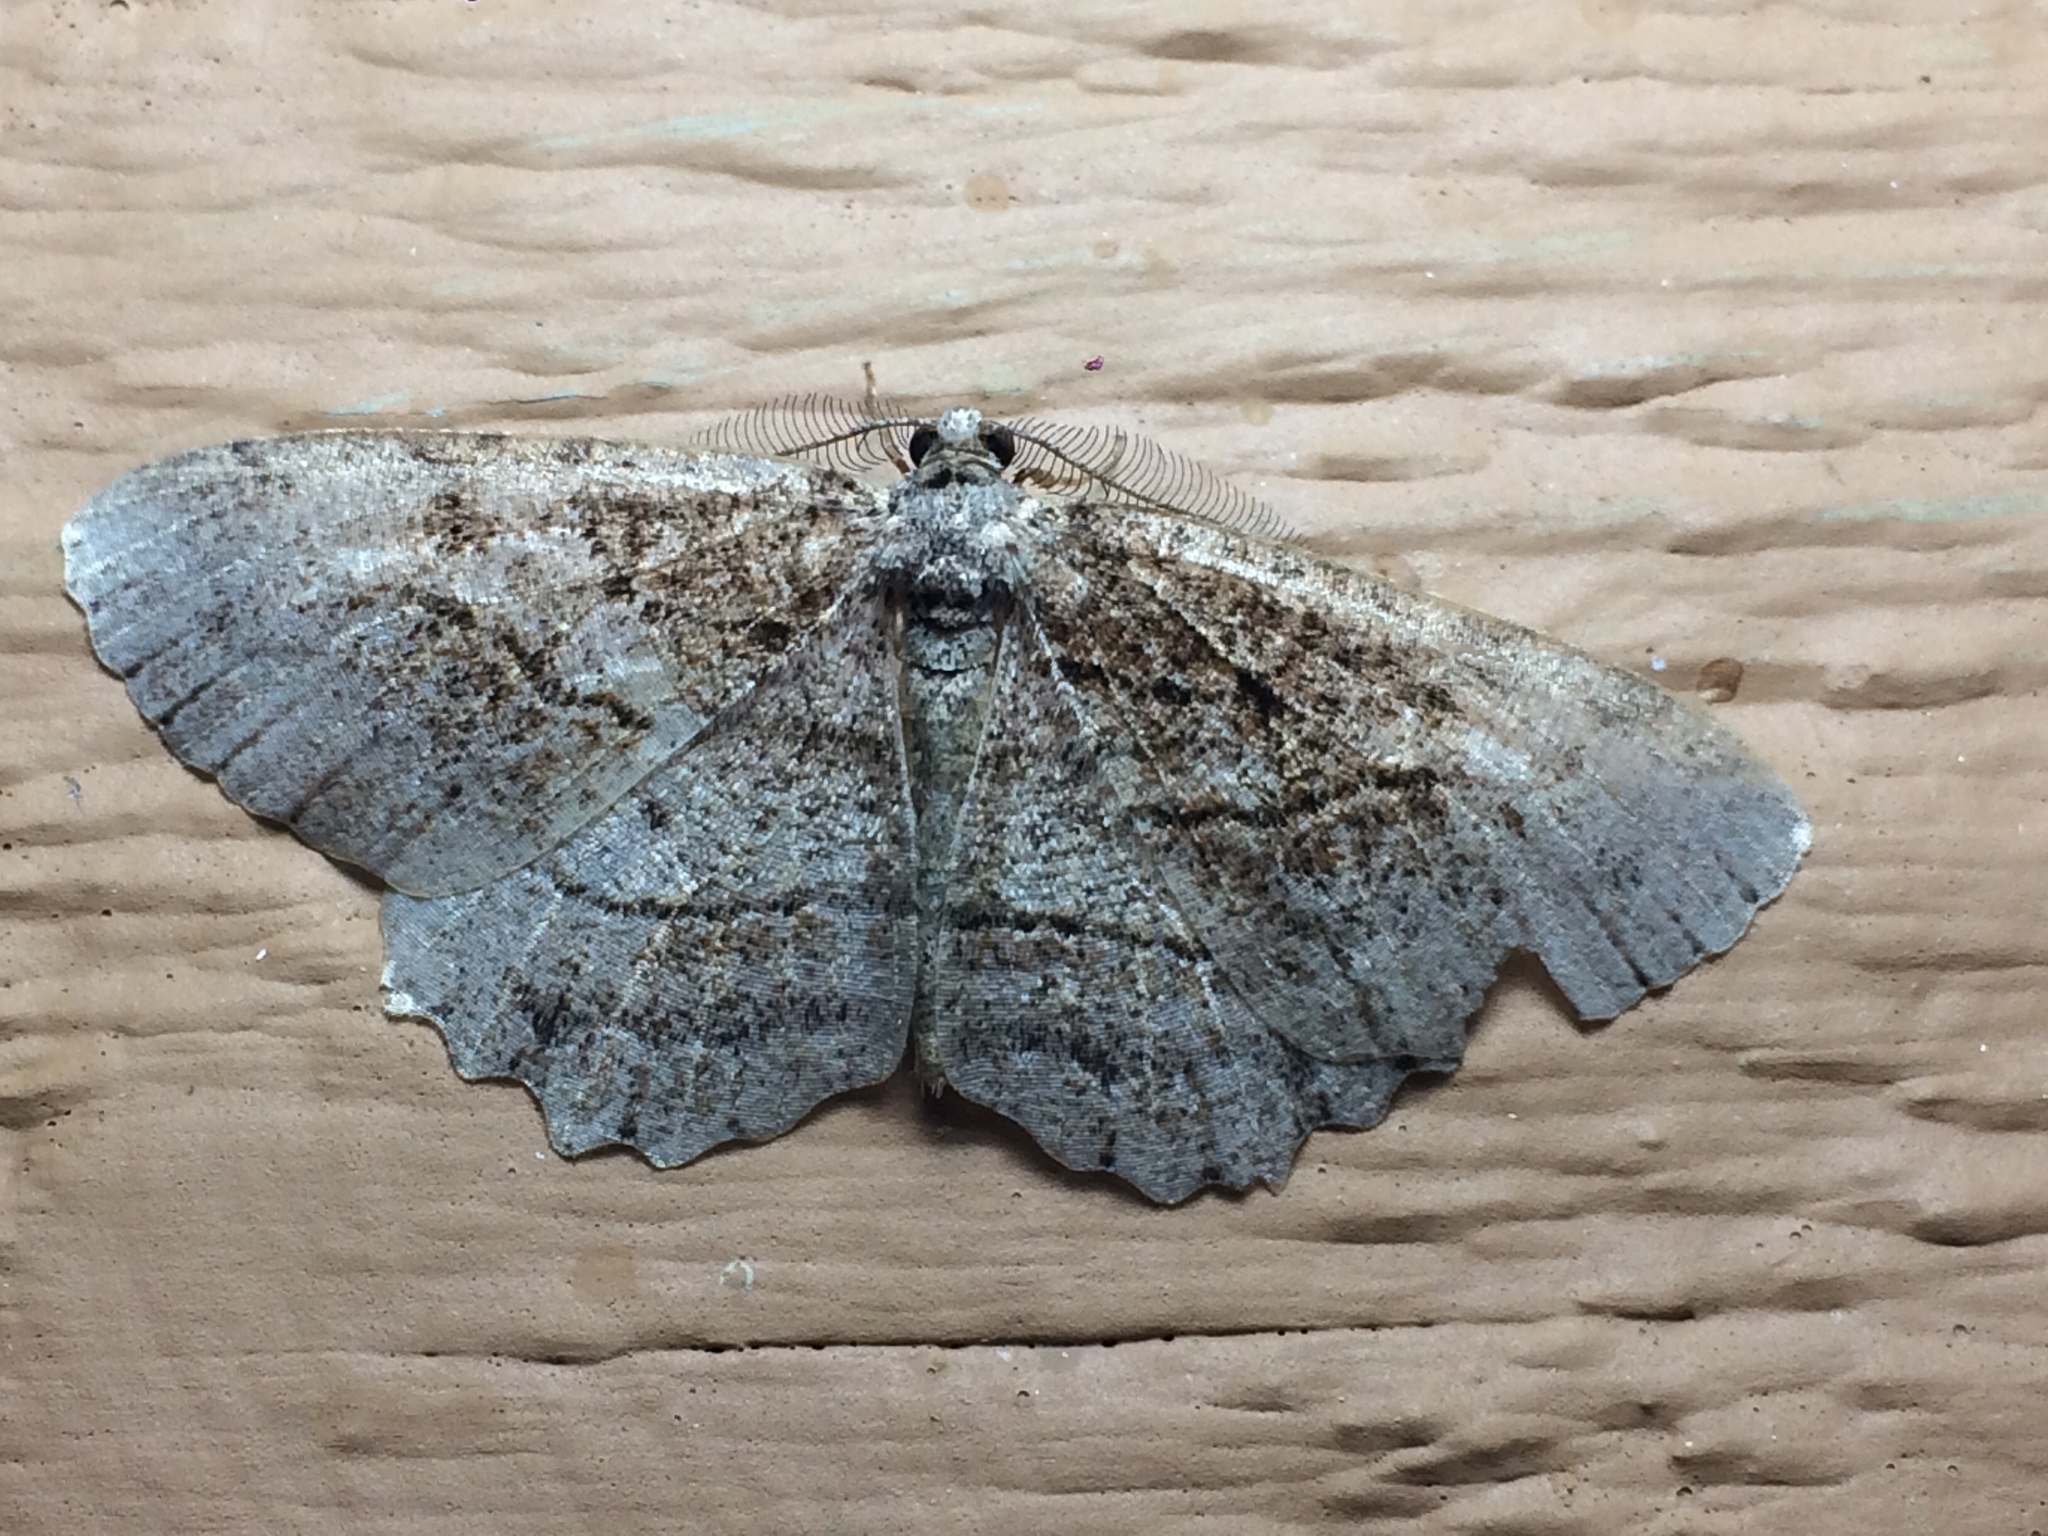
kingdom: Animalia
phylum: Arthropoda
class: Insecta
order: Lepidoptera
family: Geometridae
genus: Neoalcis
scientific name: Neoalcis californiaria
